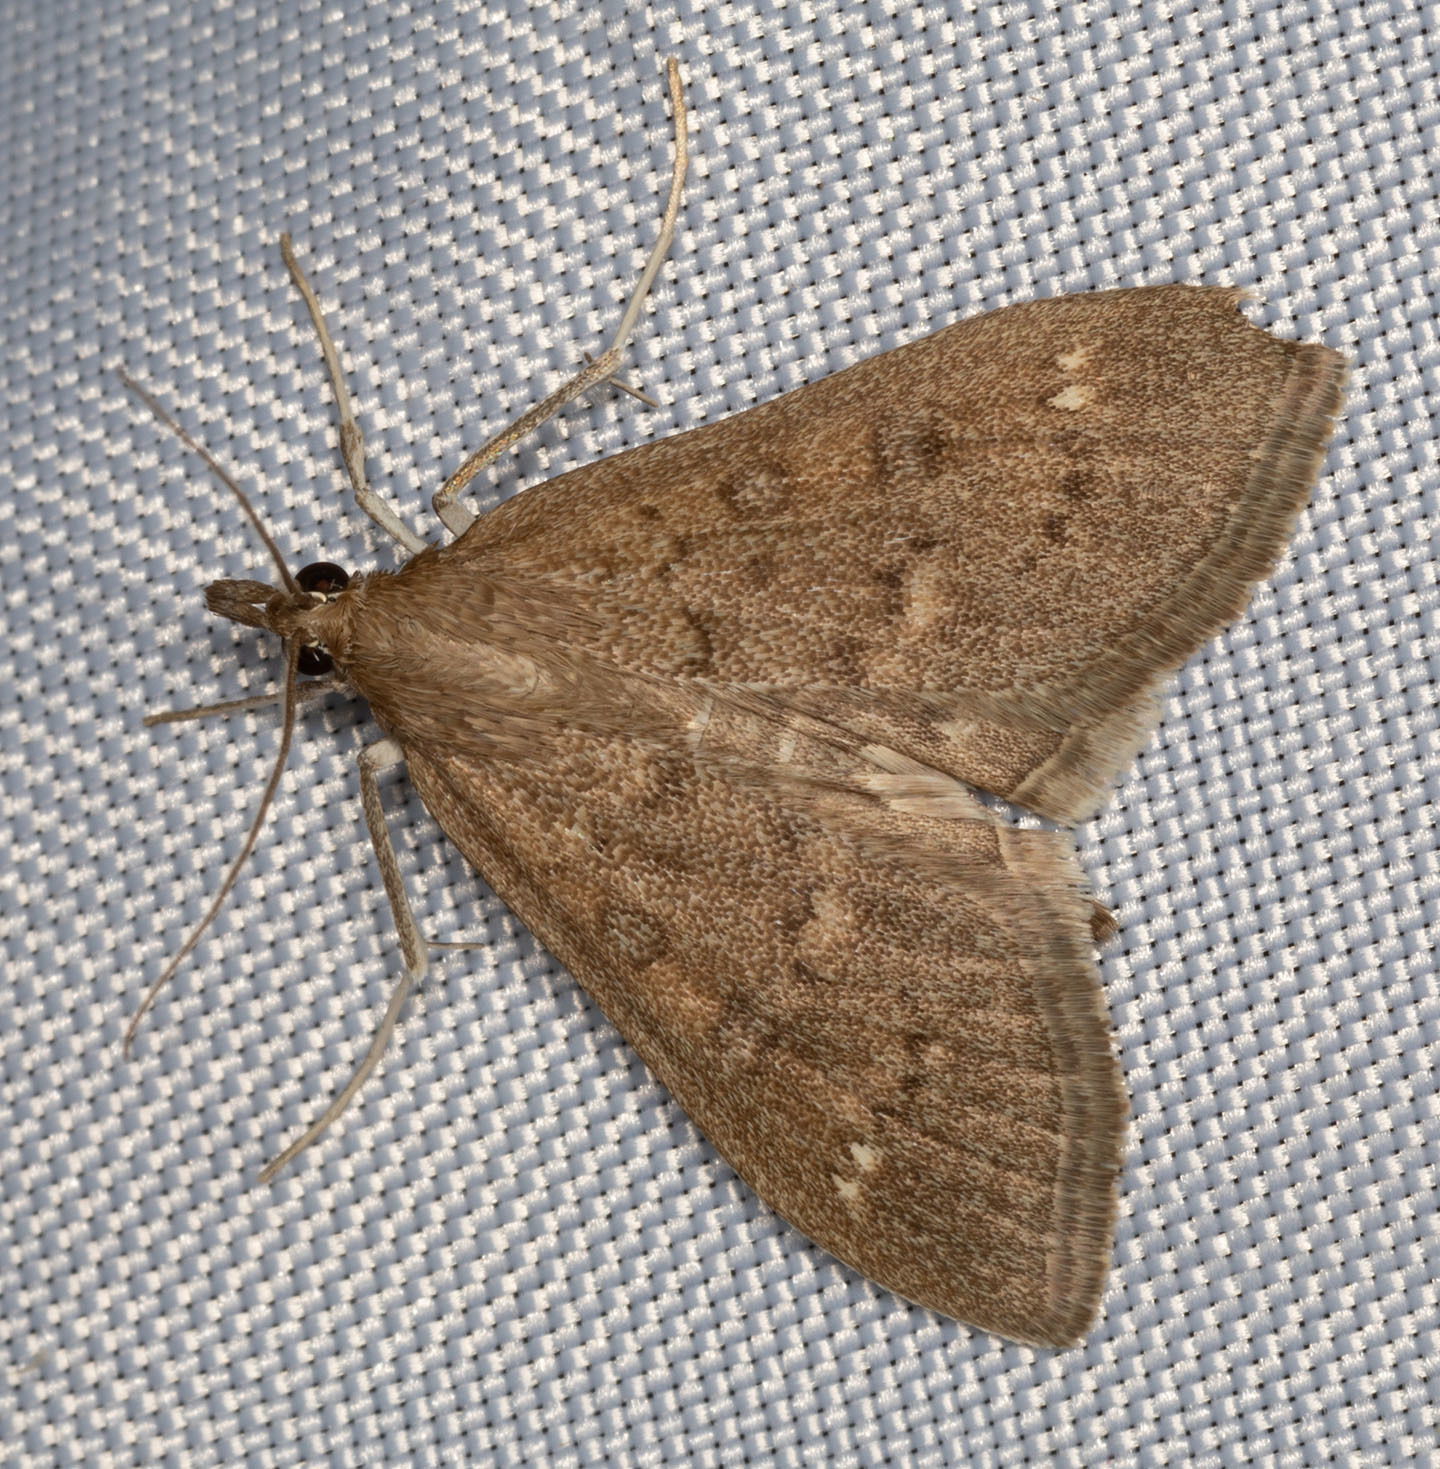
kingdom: Animalia
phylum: Arthropoda
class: Insecta
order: Lepidoptera
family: Crambidae
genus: Mecyna
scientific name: Mecyna mustelinalis
